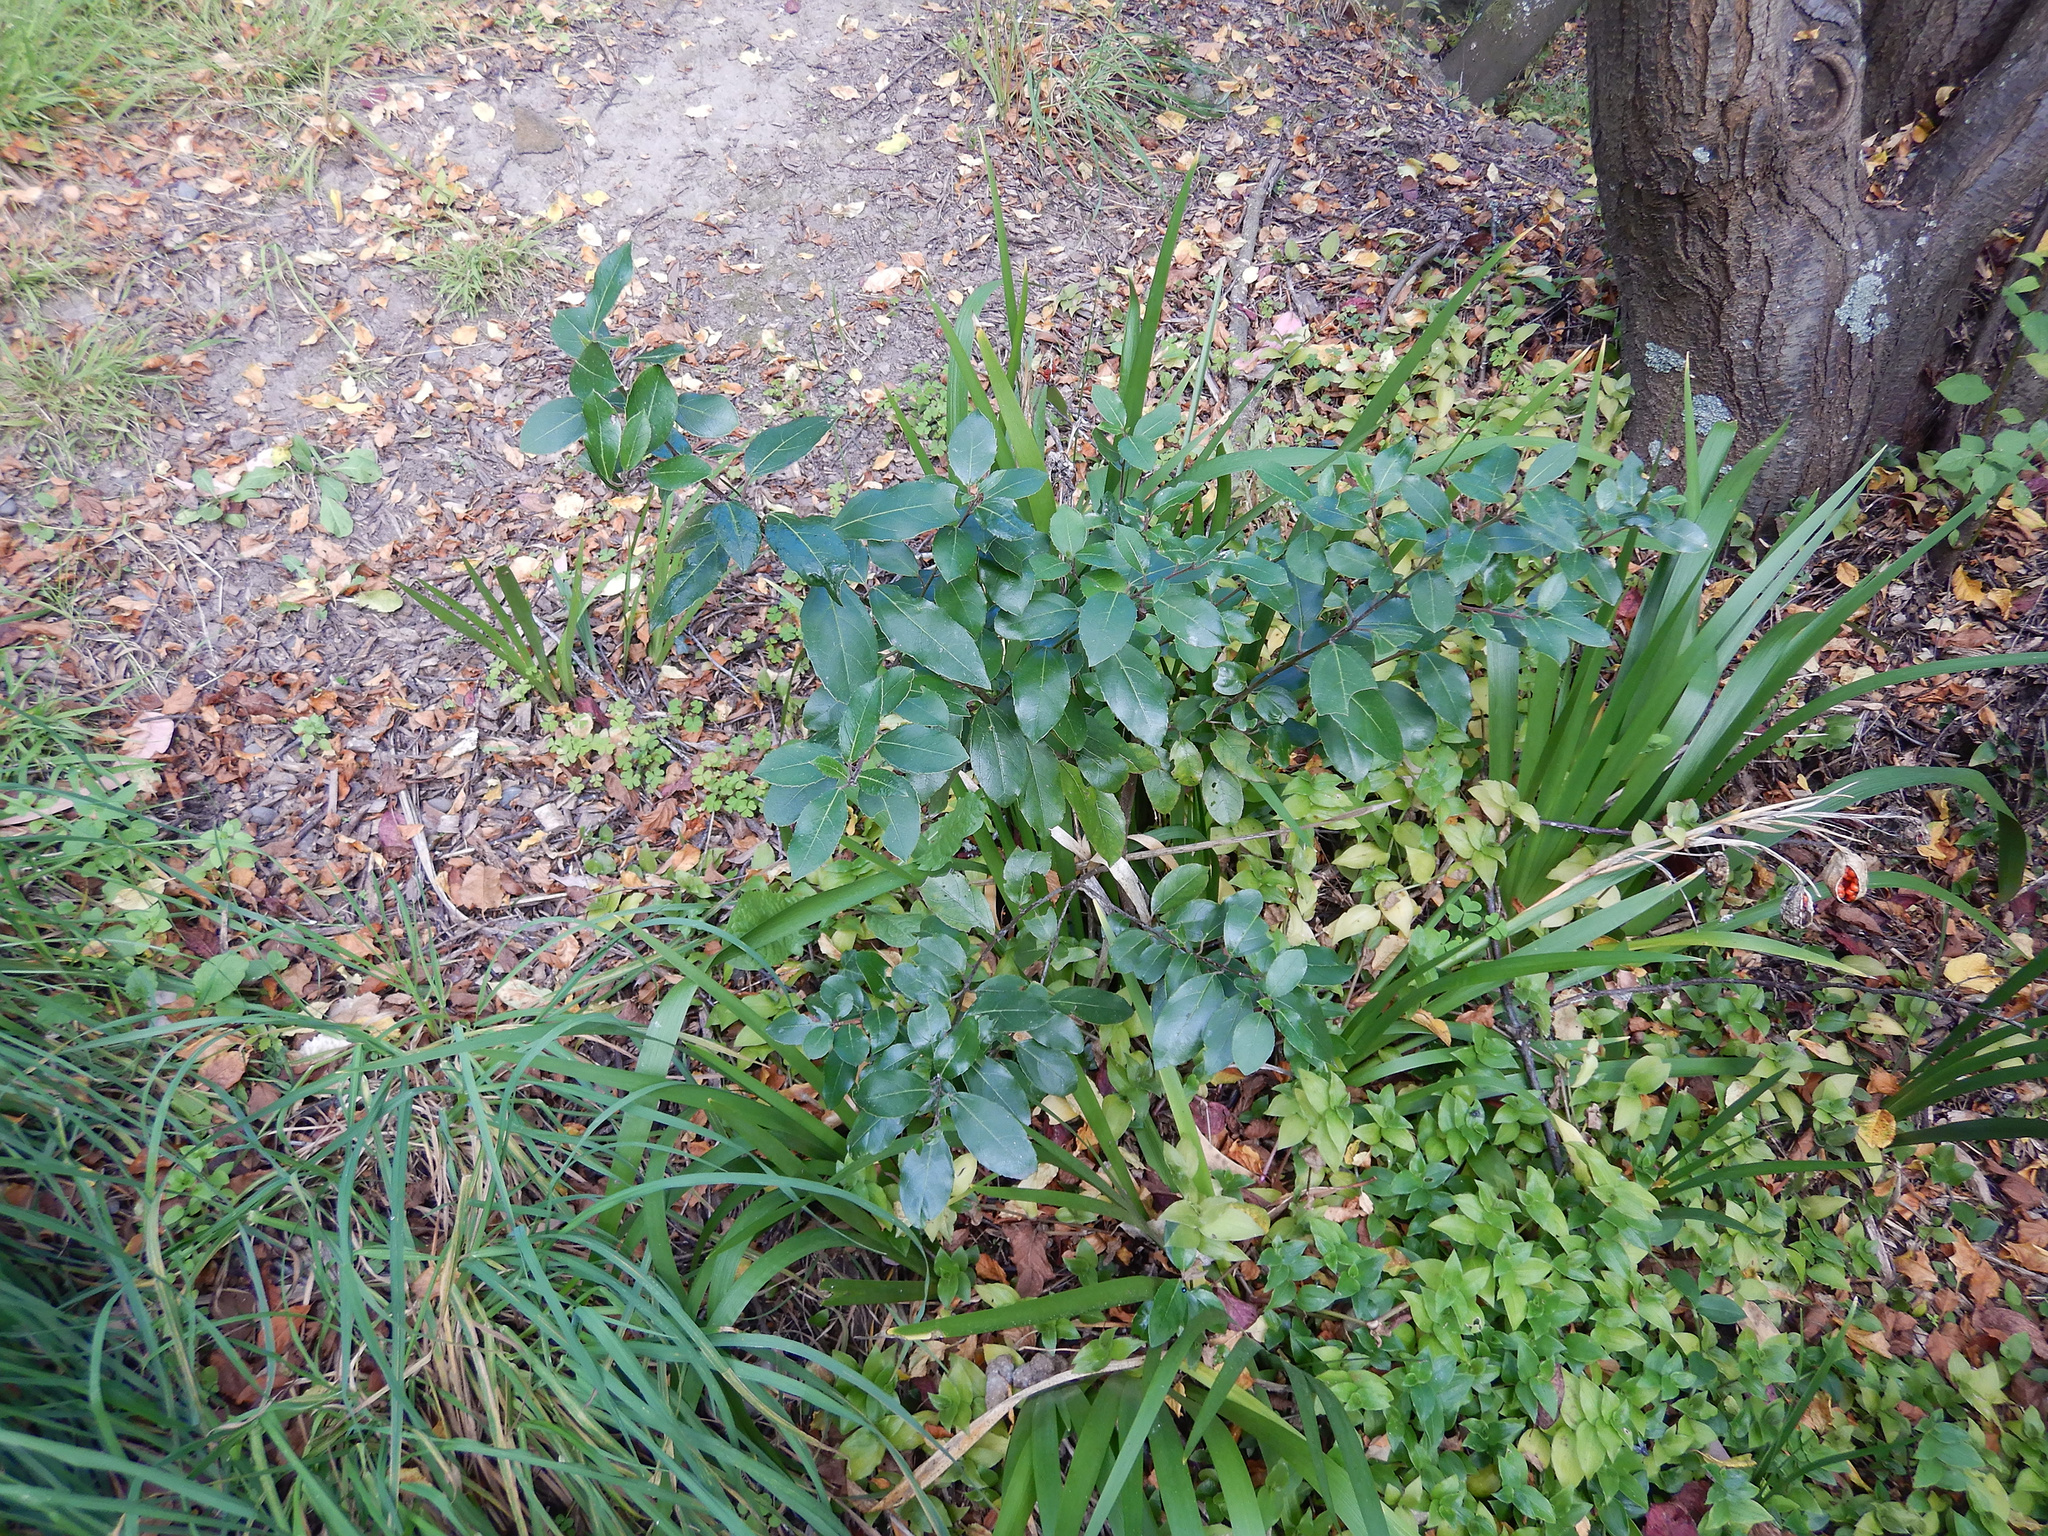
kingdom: Plantae
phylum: Tracheophyta
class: Magnoliopsida
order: Rosales
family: Rhamnaceae
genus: Rhamnus
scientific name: Rhamnus alaternus
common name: Mediterranean buckthorn
